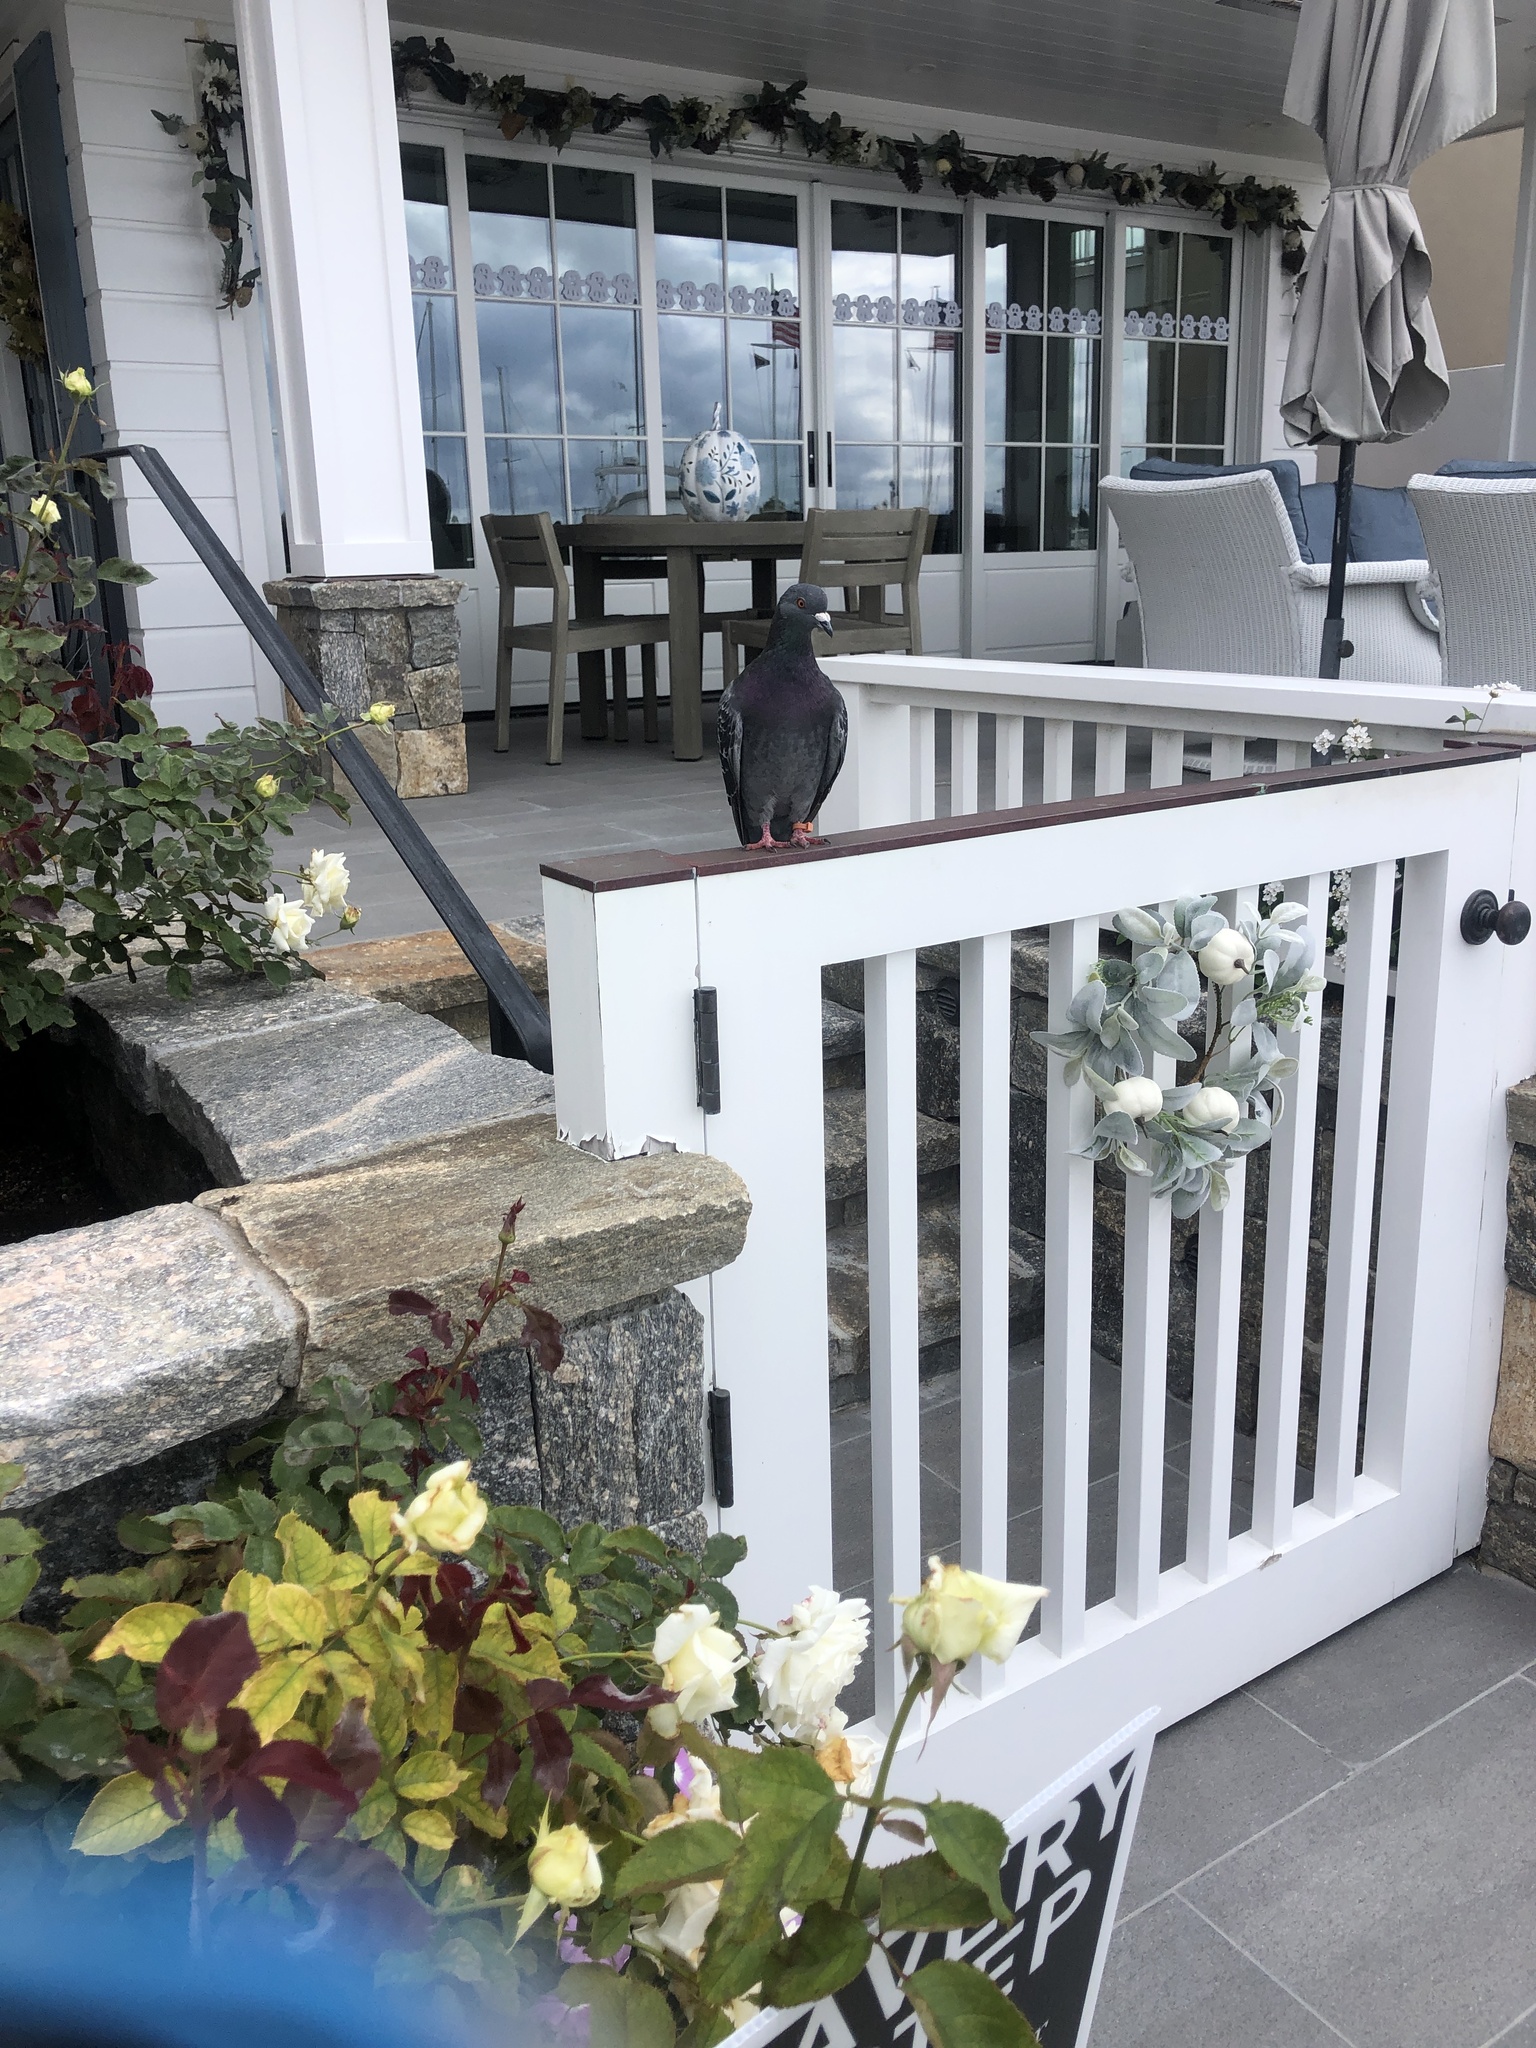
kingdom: Animalia
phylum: Chordata
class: Aves
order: Columbiformes
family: Columbidae
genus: Columba
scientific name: Columba livia
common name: Rock pigeon
